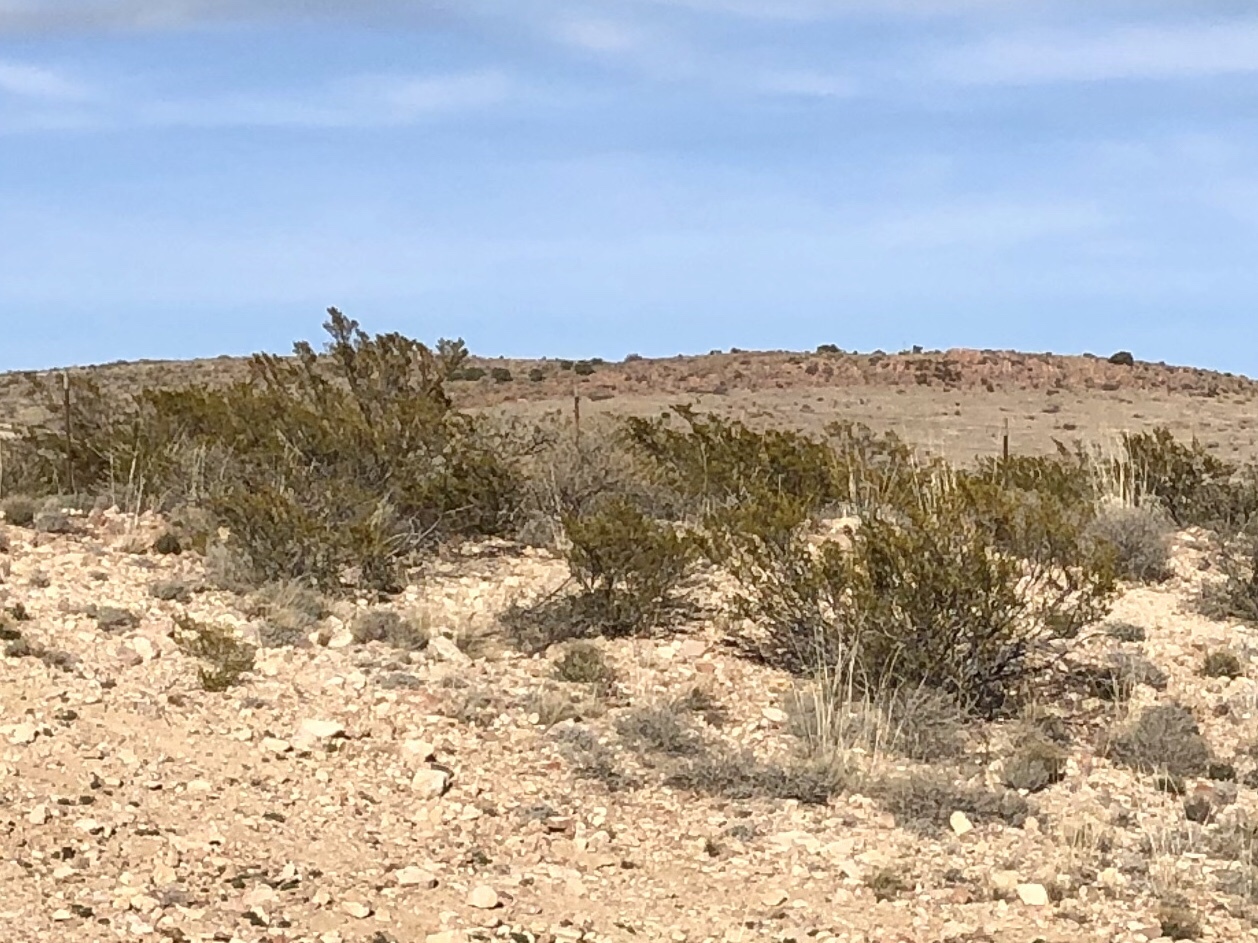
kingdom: Plantae
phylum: Tracheophyta
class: Magnoliopsida
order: Zygophyllales
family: Zygophyllaceae
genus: Larrea
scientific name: Larrea tridentata
